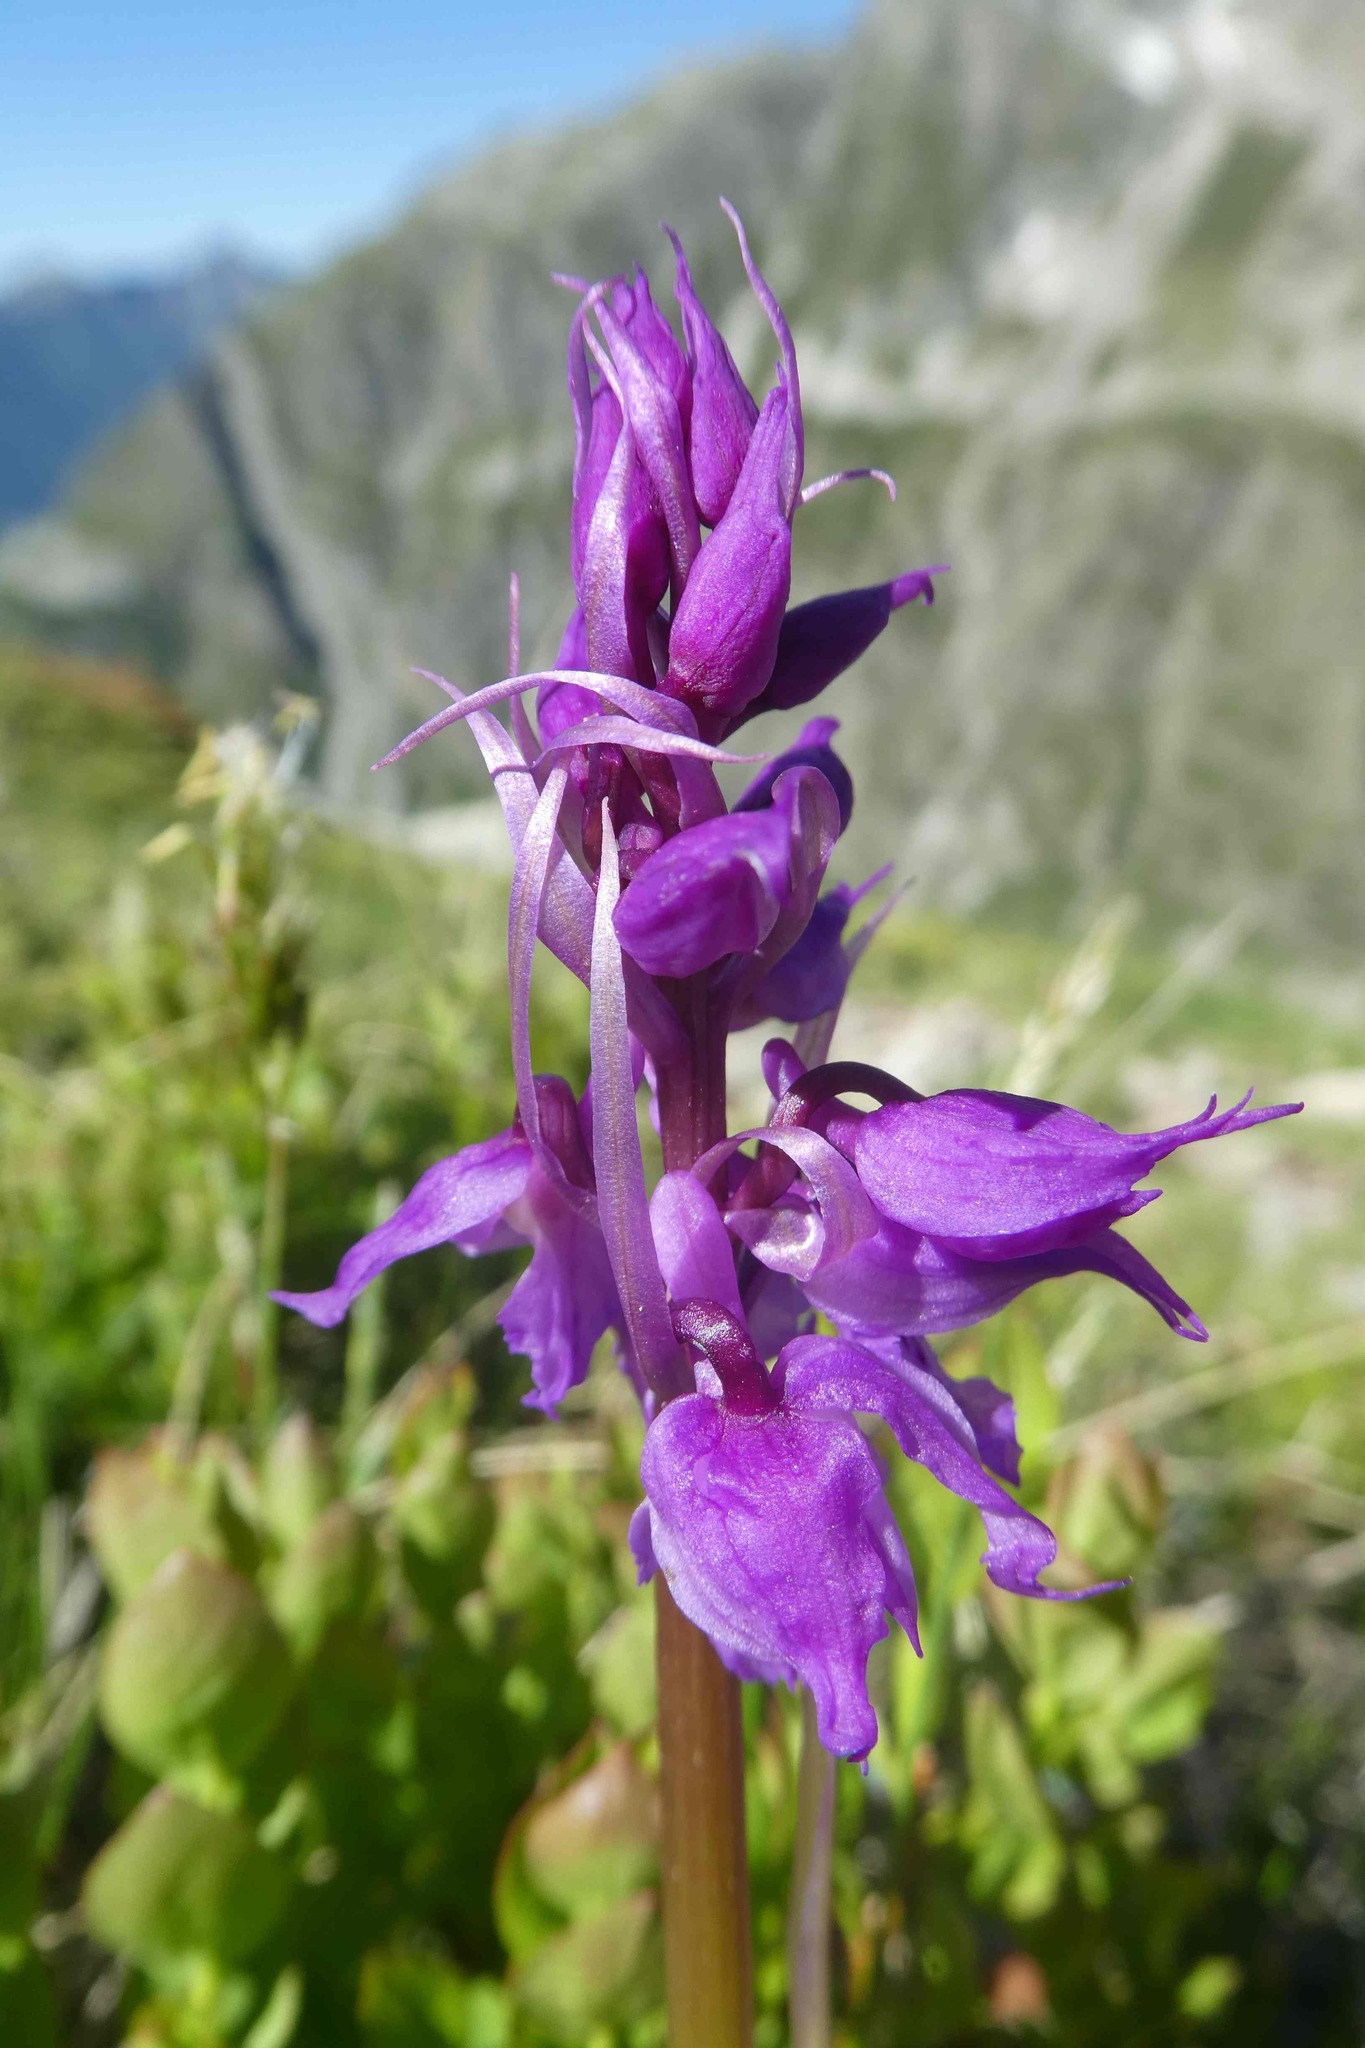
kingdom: Plantae
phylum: Tracheophyta
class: Liliopsida
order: Asparagales
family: Orchidaceae
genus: Orchis
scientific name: Orchis mascula
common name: Early-purple orchid
